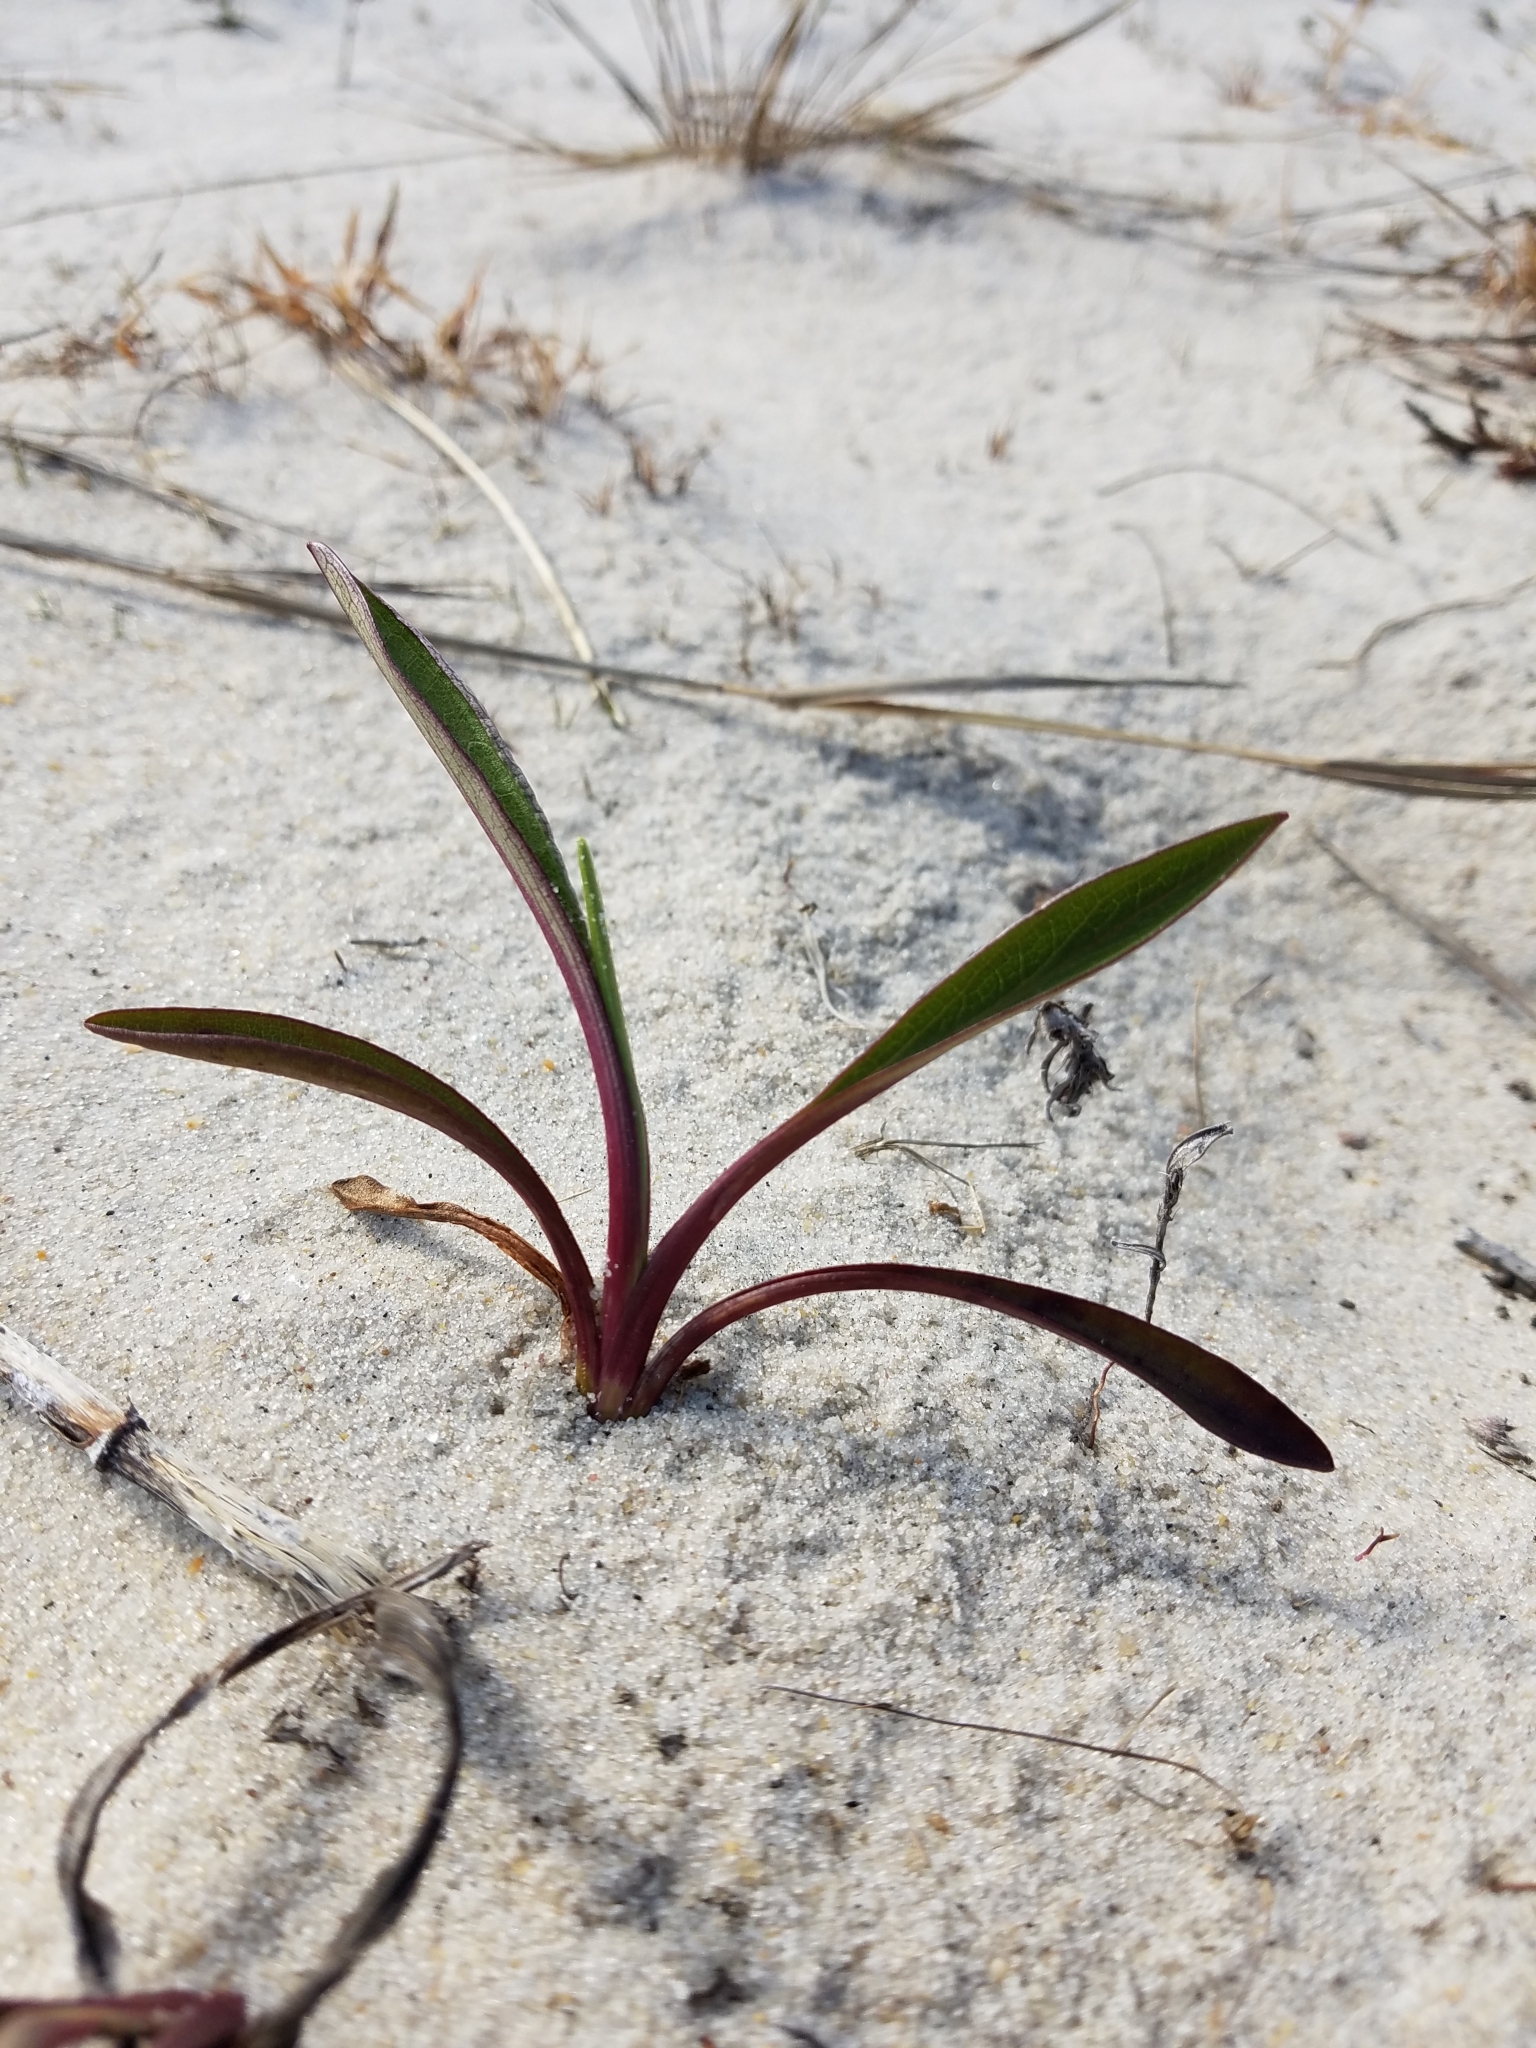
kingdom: Plantae
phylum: Tracheophyta
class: Magnoliopsida
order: Asterales
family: Asteraceae
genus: Solidago
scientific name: Solidago sempervirens
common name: Salt-marsh goldenrod
